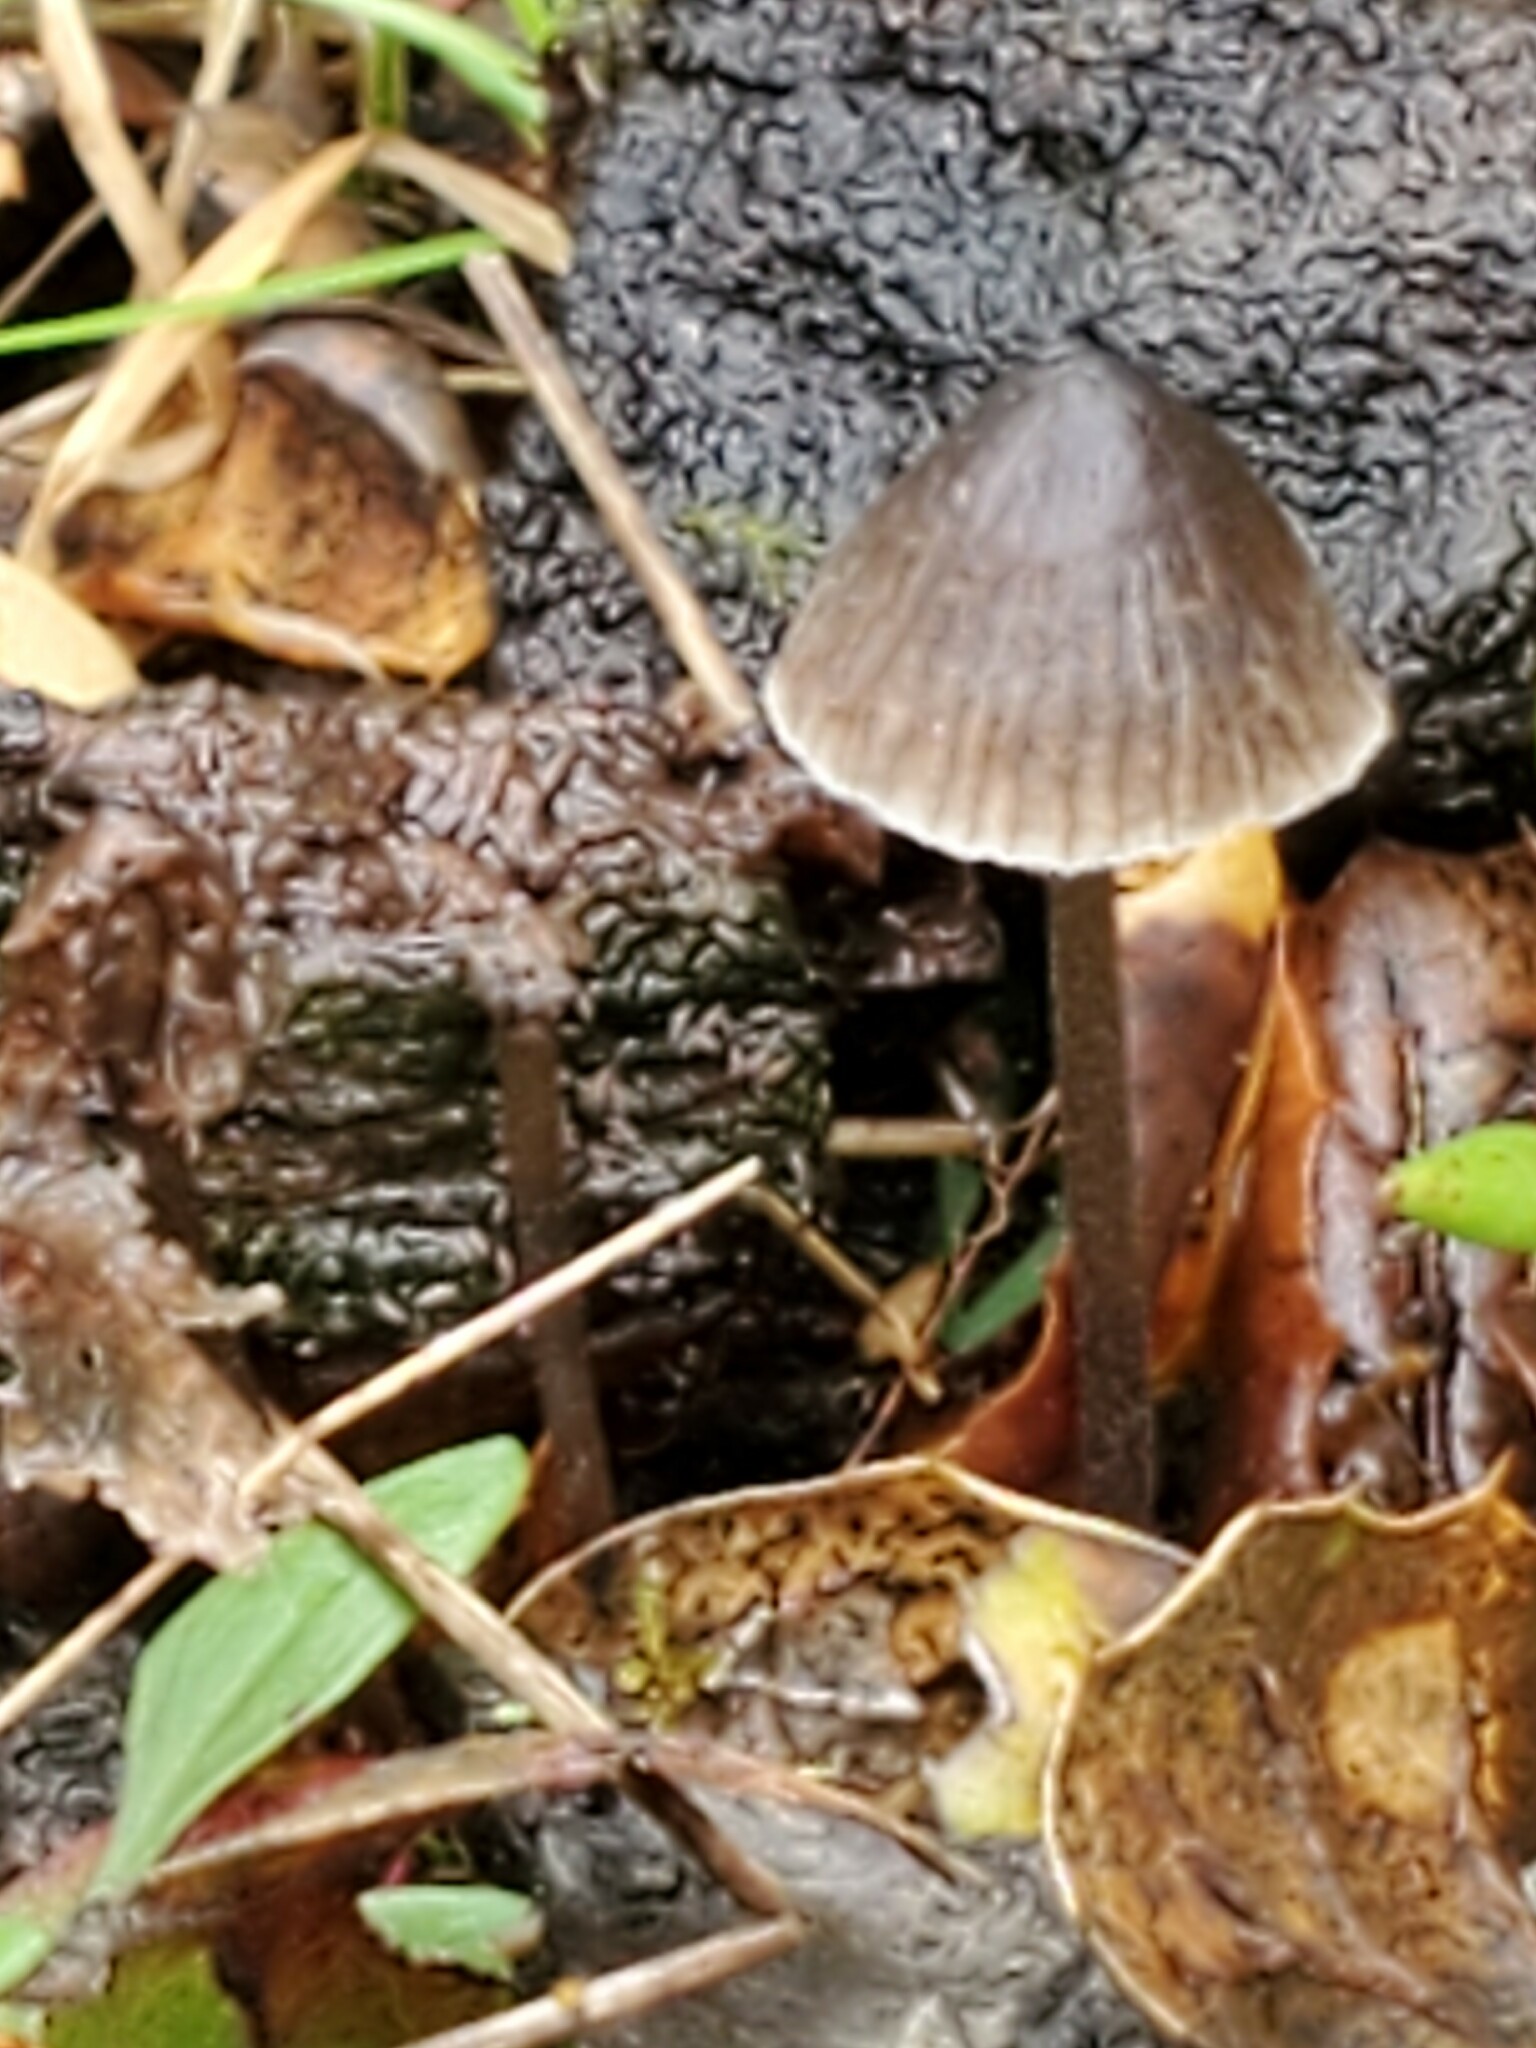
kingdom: Fungi
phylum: Basidiomycota
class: Agaricomycetes
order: Agaricales
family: Mycenaceae
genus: Mycena
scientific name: Mycena leptocephala
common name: Nitrous bonnet
